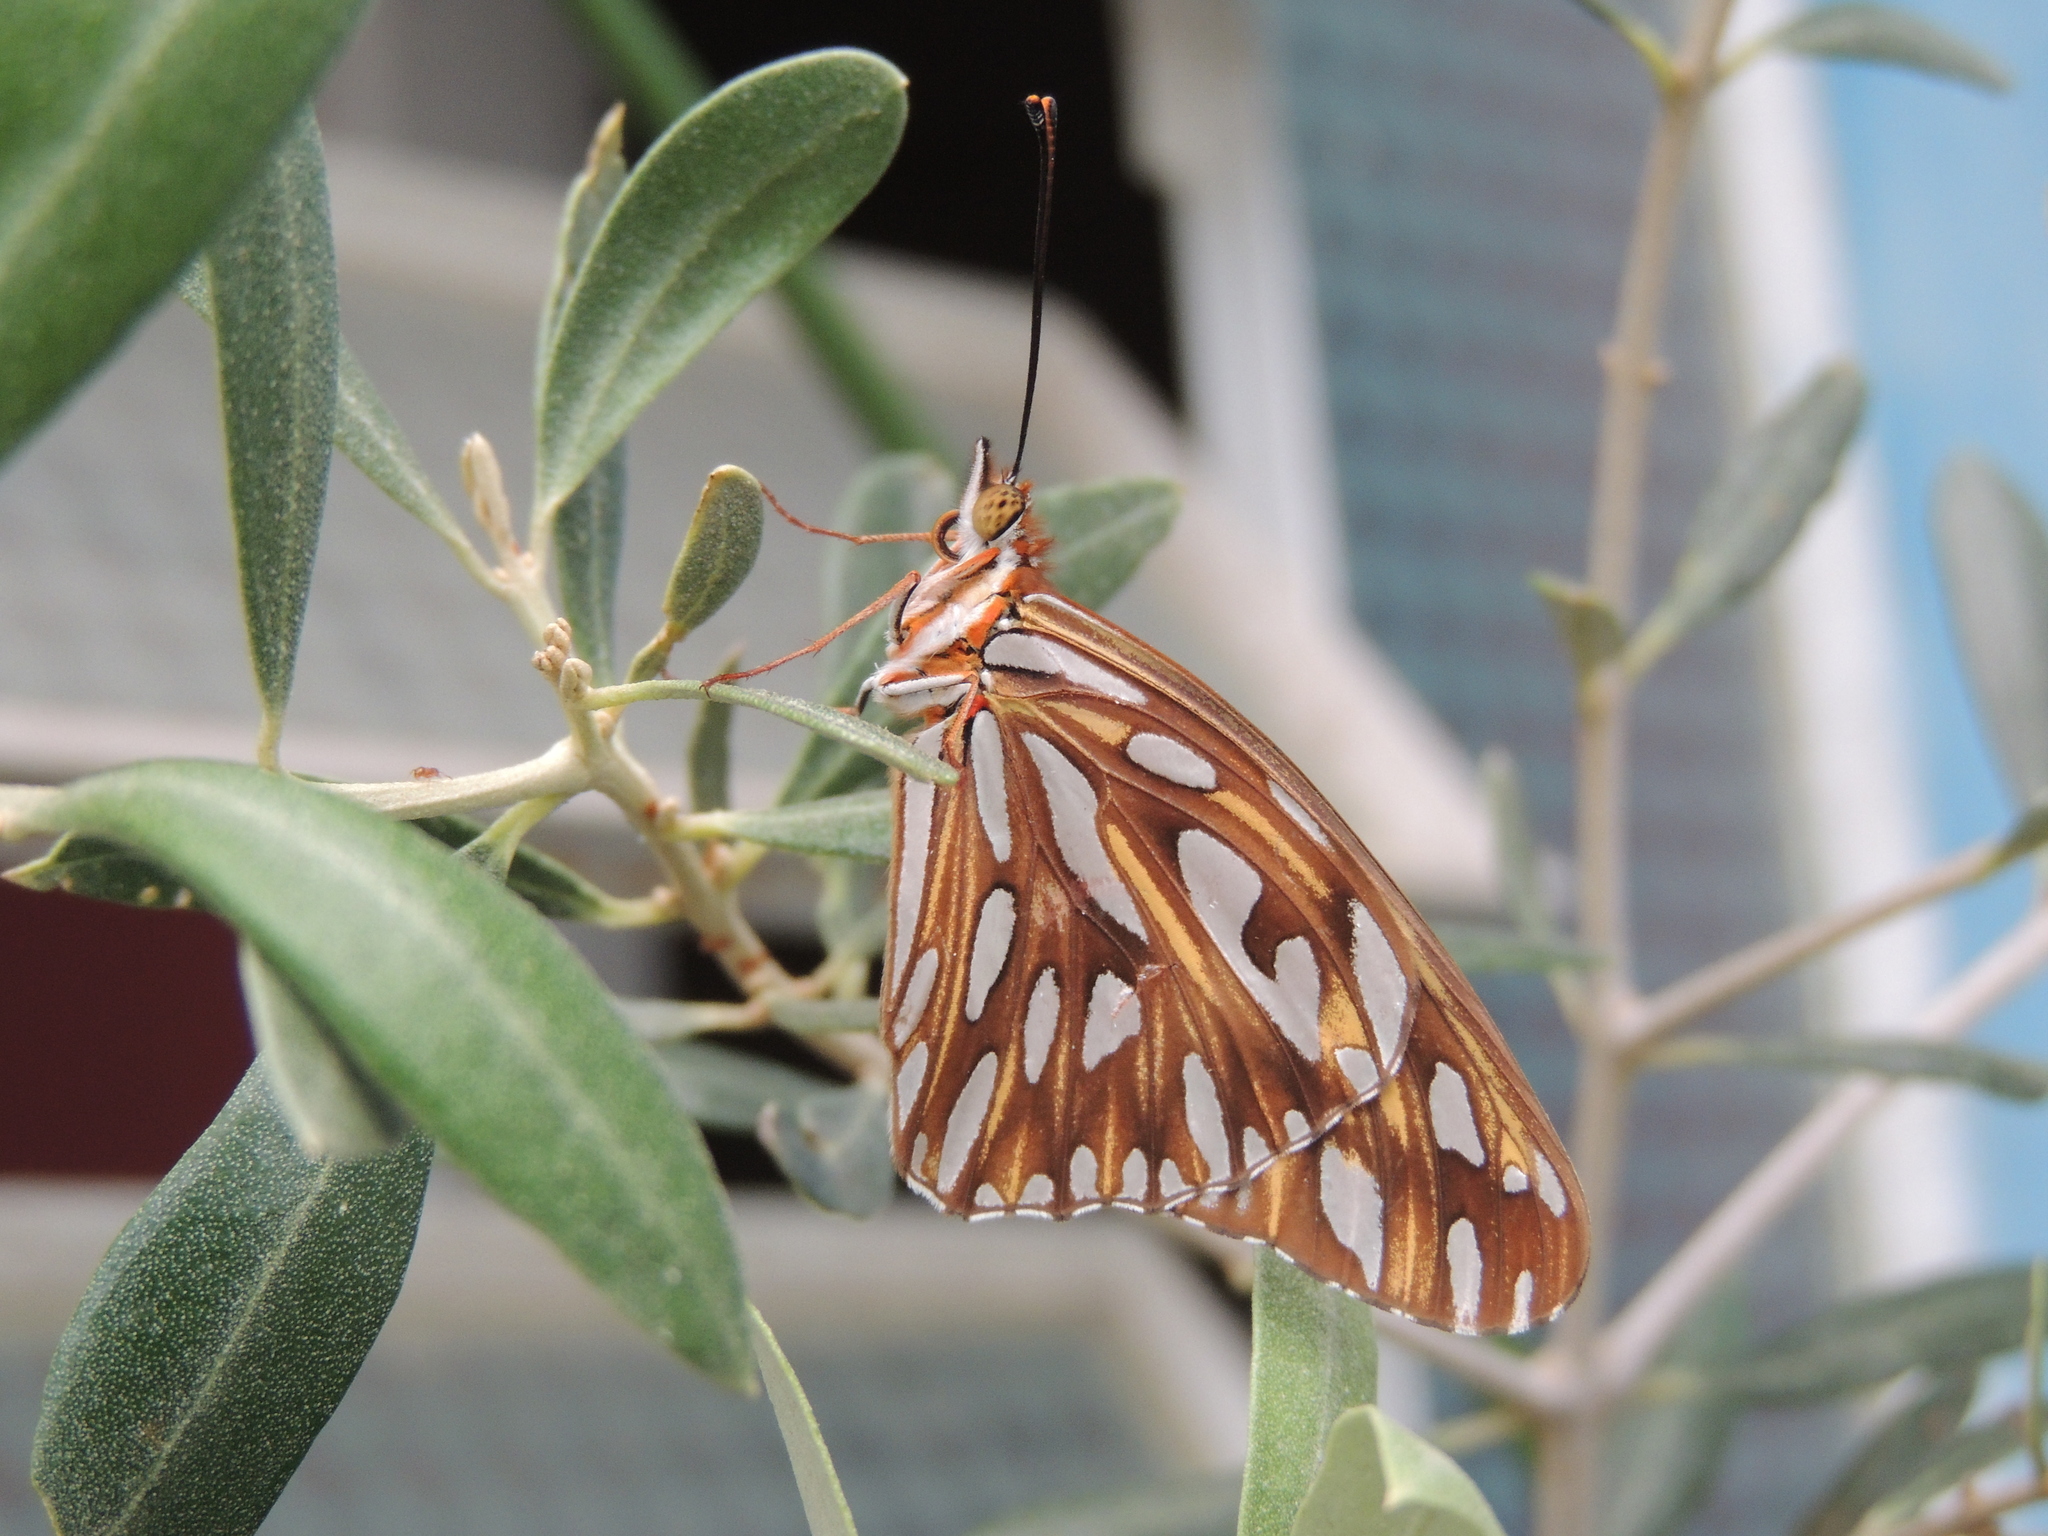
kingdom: Animalia
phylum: Arthropoda
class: Insecta
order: Lepidoptera
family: Nymphalidae
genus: Dione
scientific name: Dione vanillae
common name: Gulf fritillary
